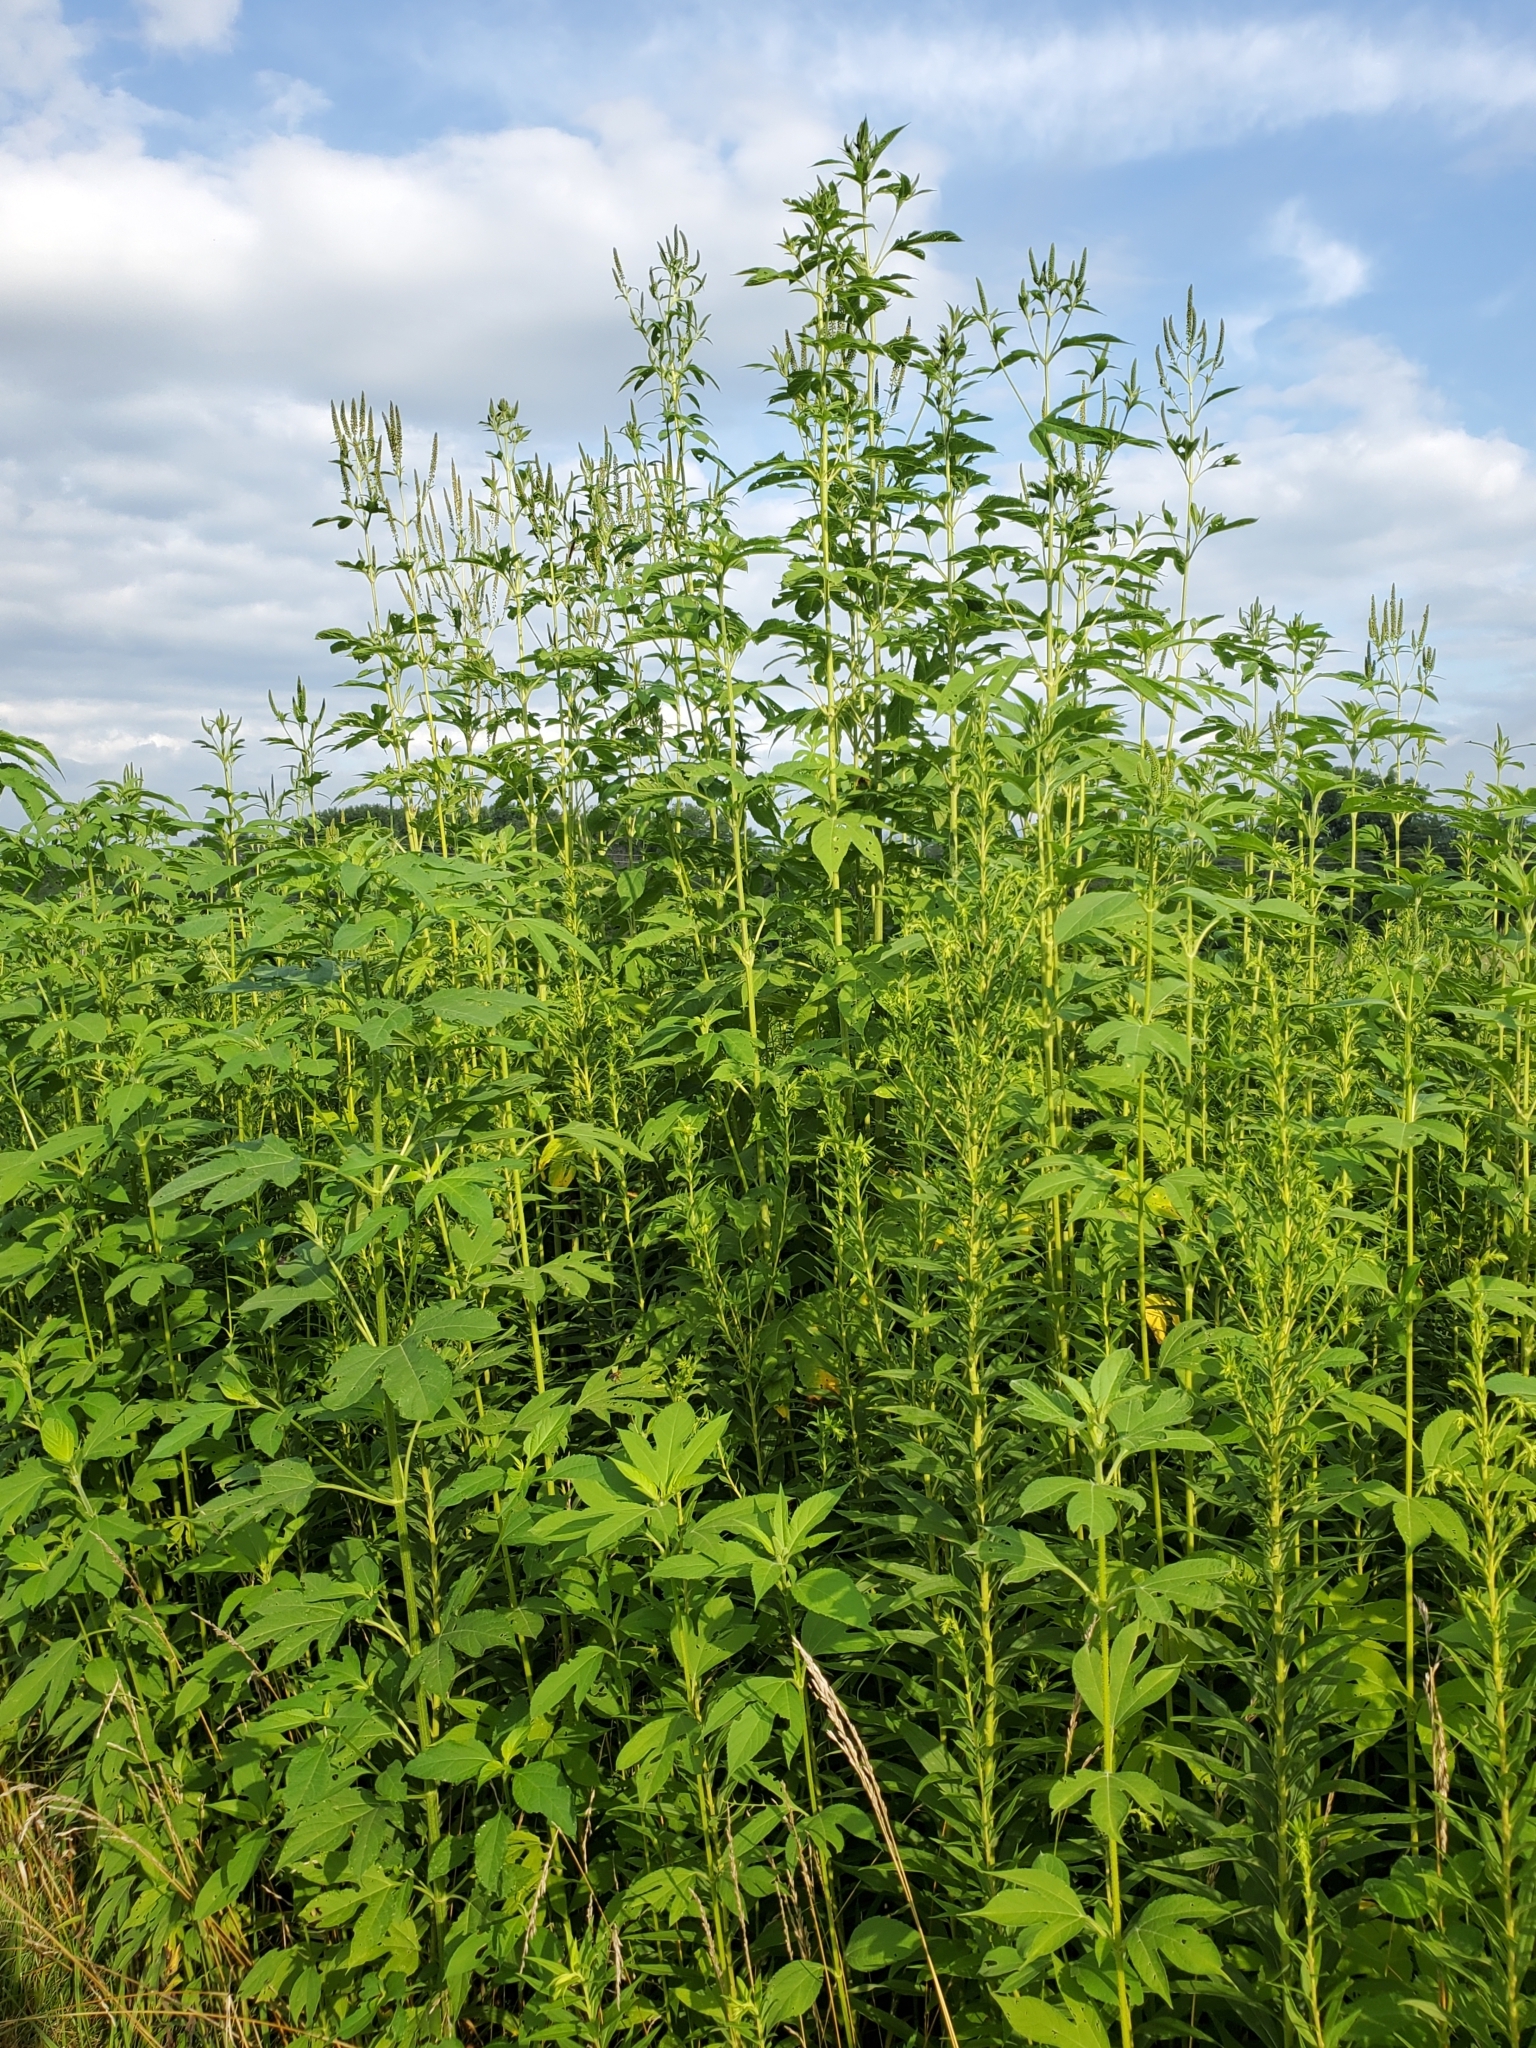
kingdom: Plantae
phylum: Tracheophyta
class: Magnoliopsida
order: Asterales
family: Asteraceae
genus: Ambrosia
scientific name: Ambrosia trifida
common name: Giant ragweed
